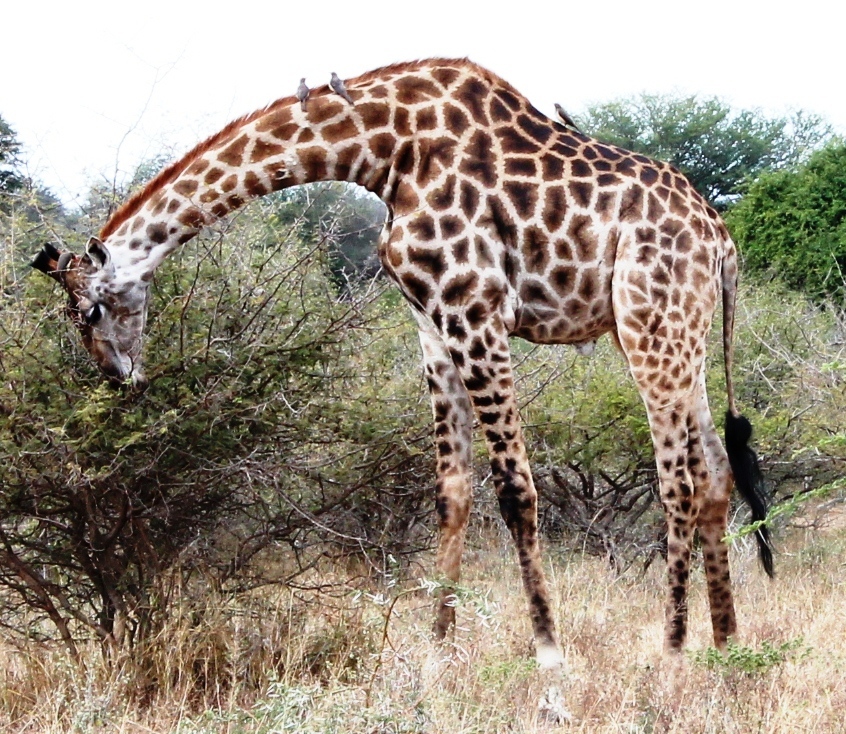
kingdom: Animalia
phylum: Chordata
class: Mammalia
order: Artiodactyla
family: Giraffidae
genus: Giraffa
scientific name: Giraffa giraffa
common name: Southern giraffe
